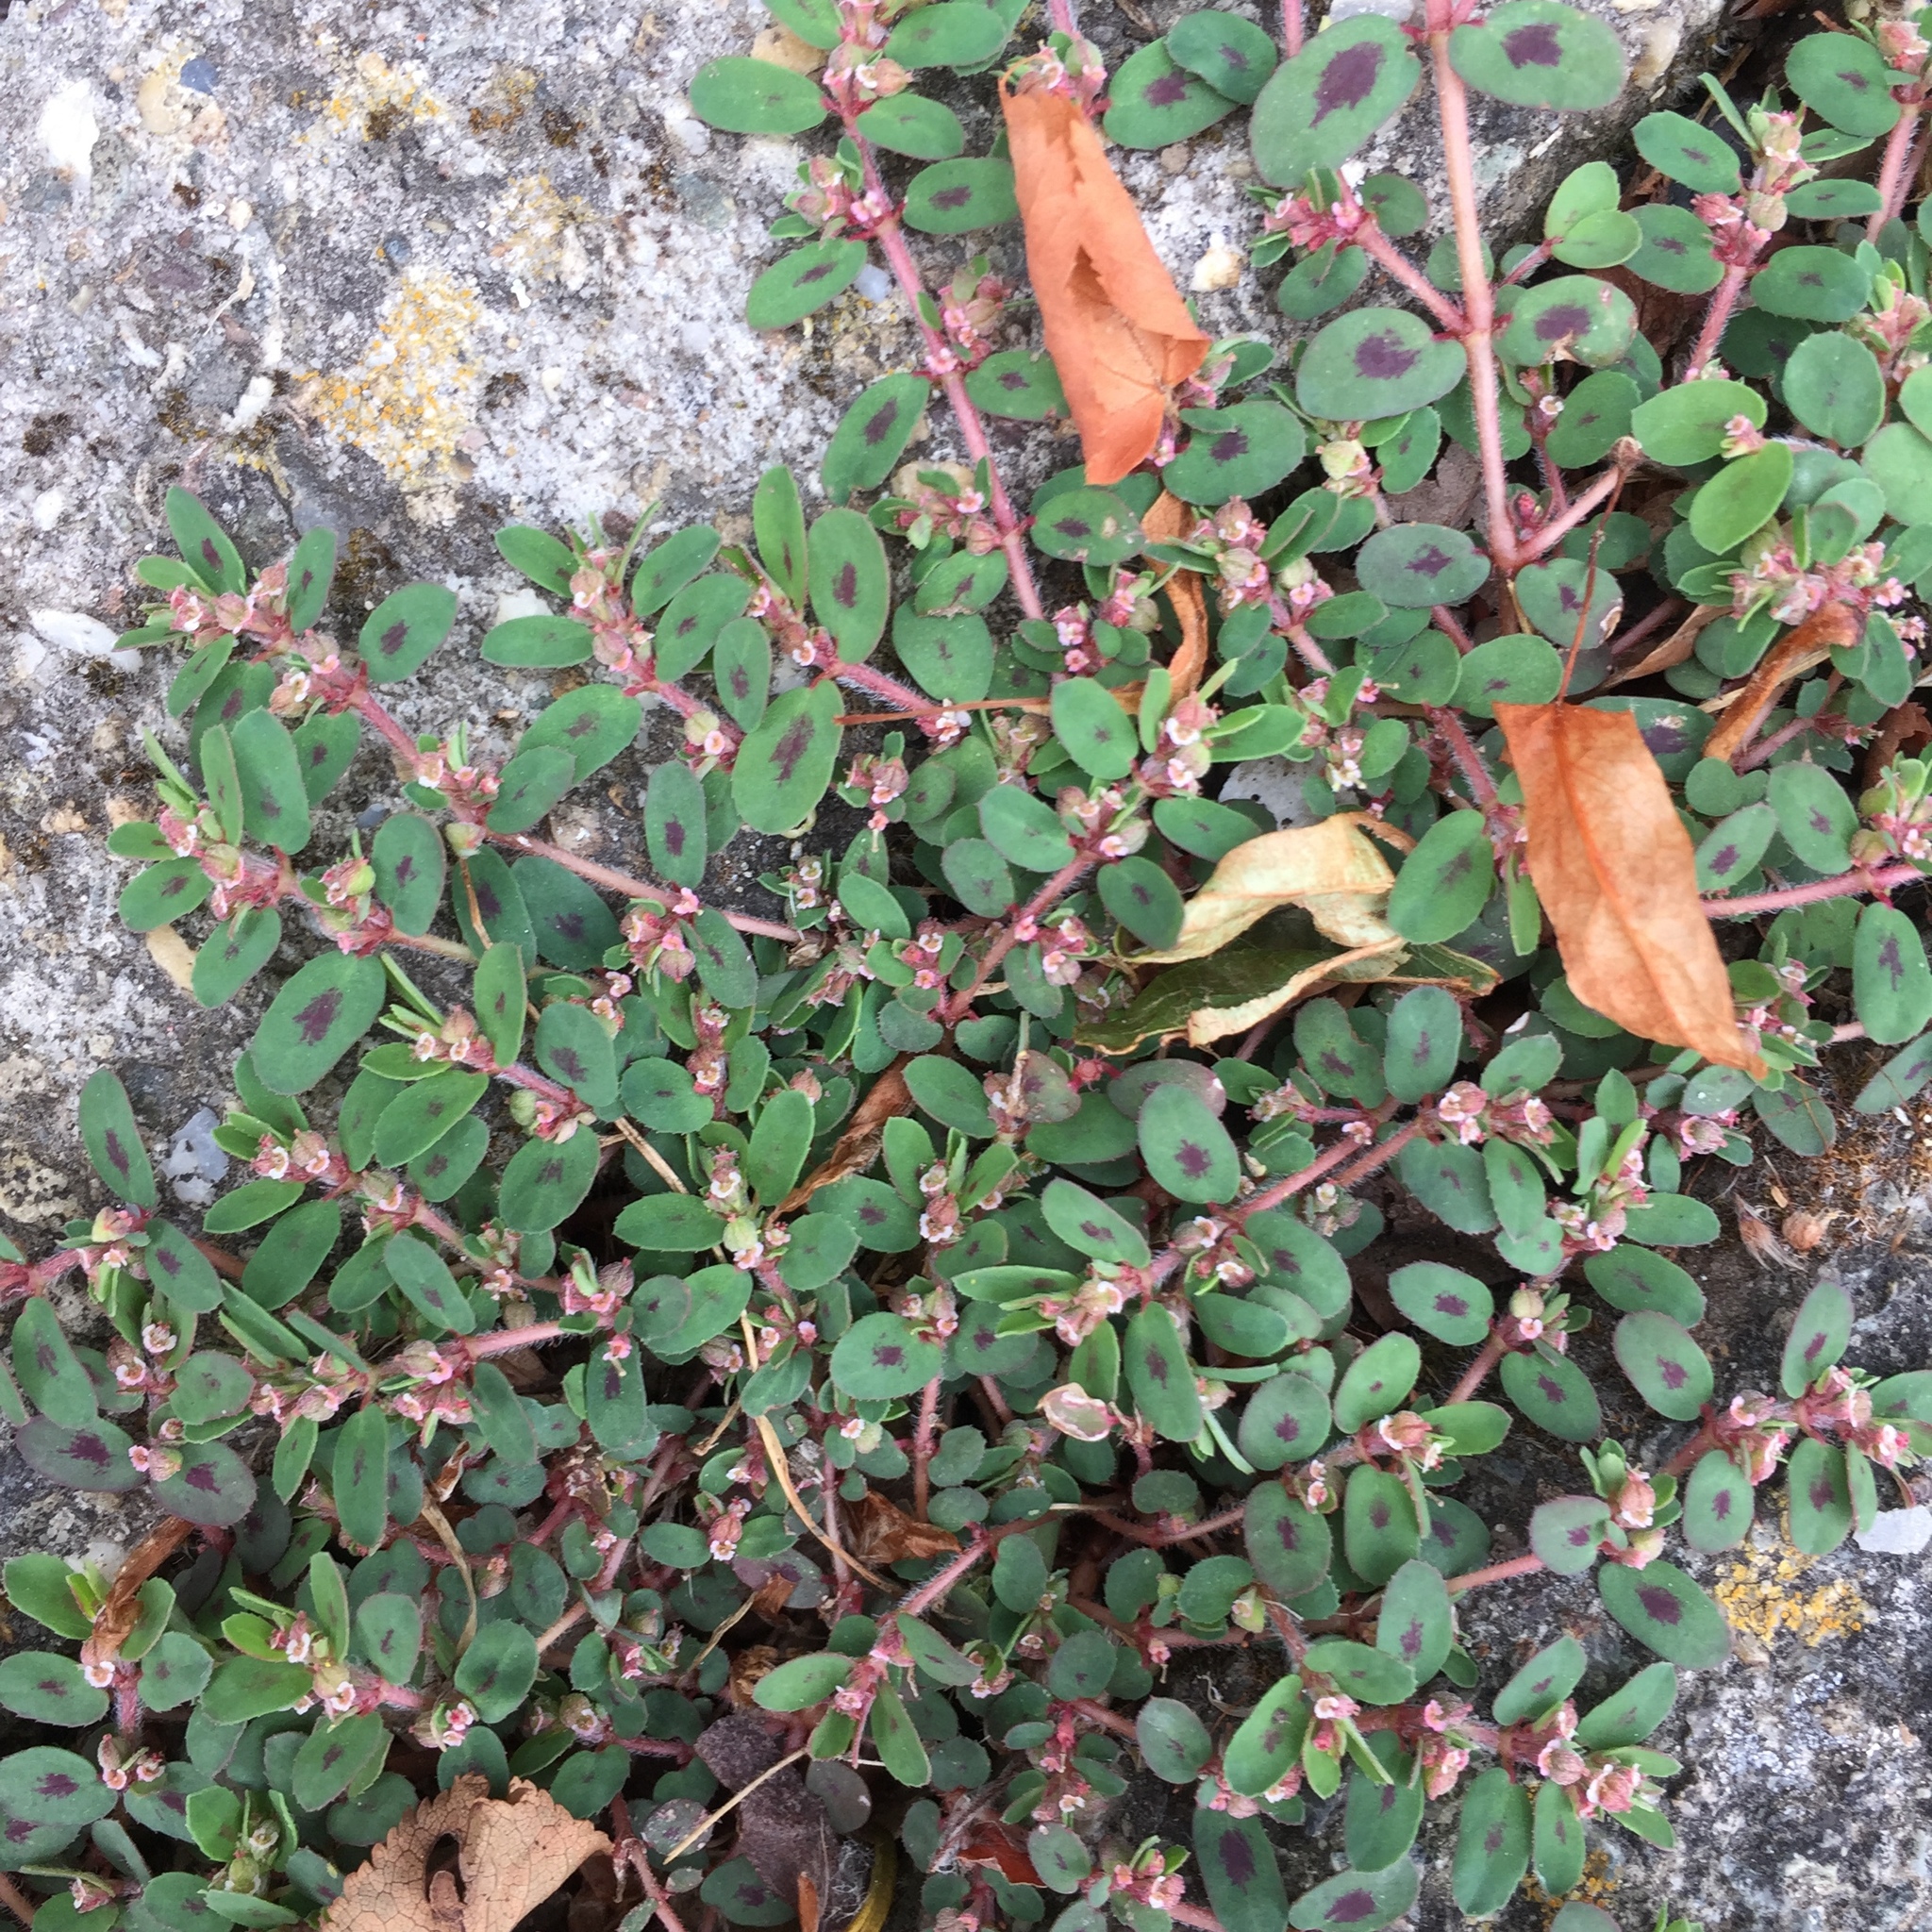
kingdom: Plantae
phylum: Tracheophyta
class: Magnoliopsida
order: Malpighiales
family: Euphorbiaceae
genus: Euphorbia
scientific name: Euphorbia maculata
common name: Spotted spurge
